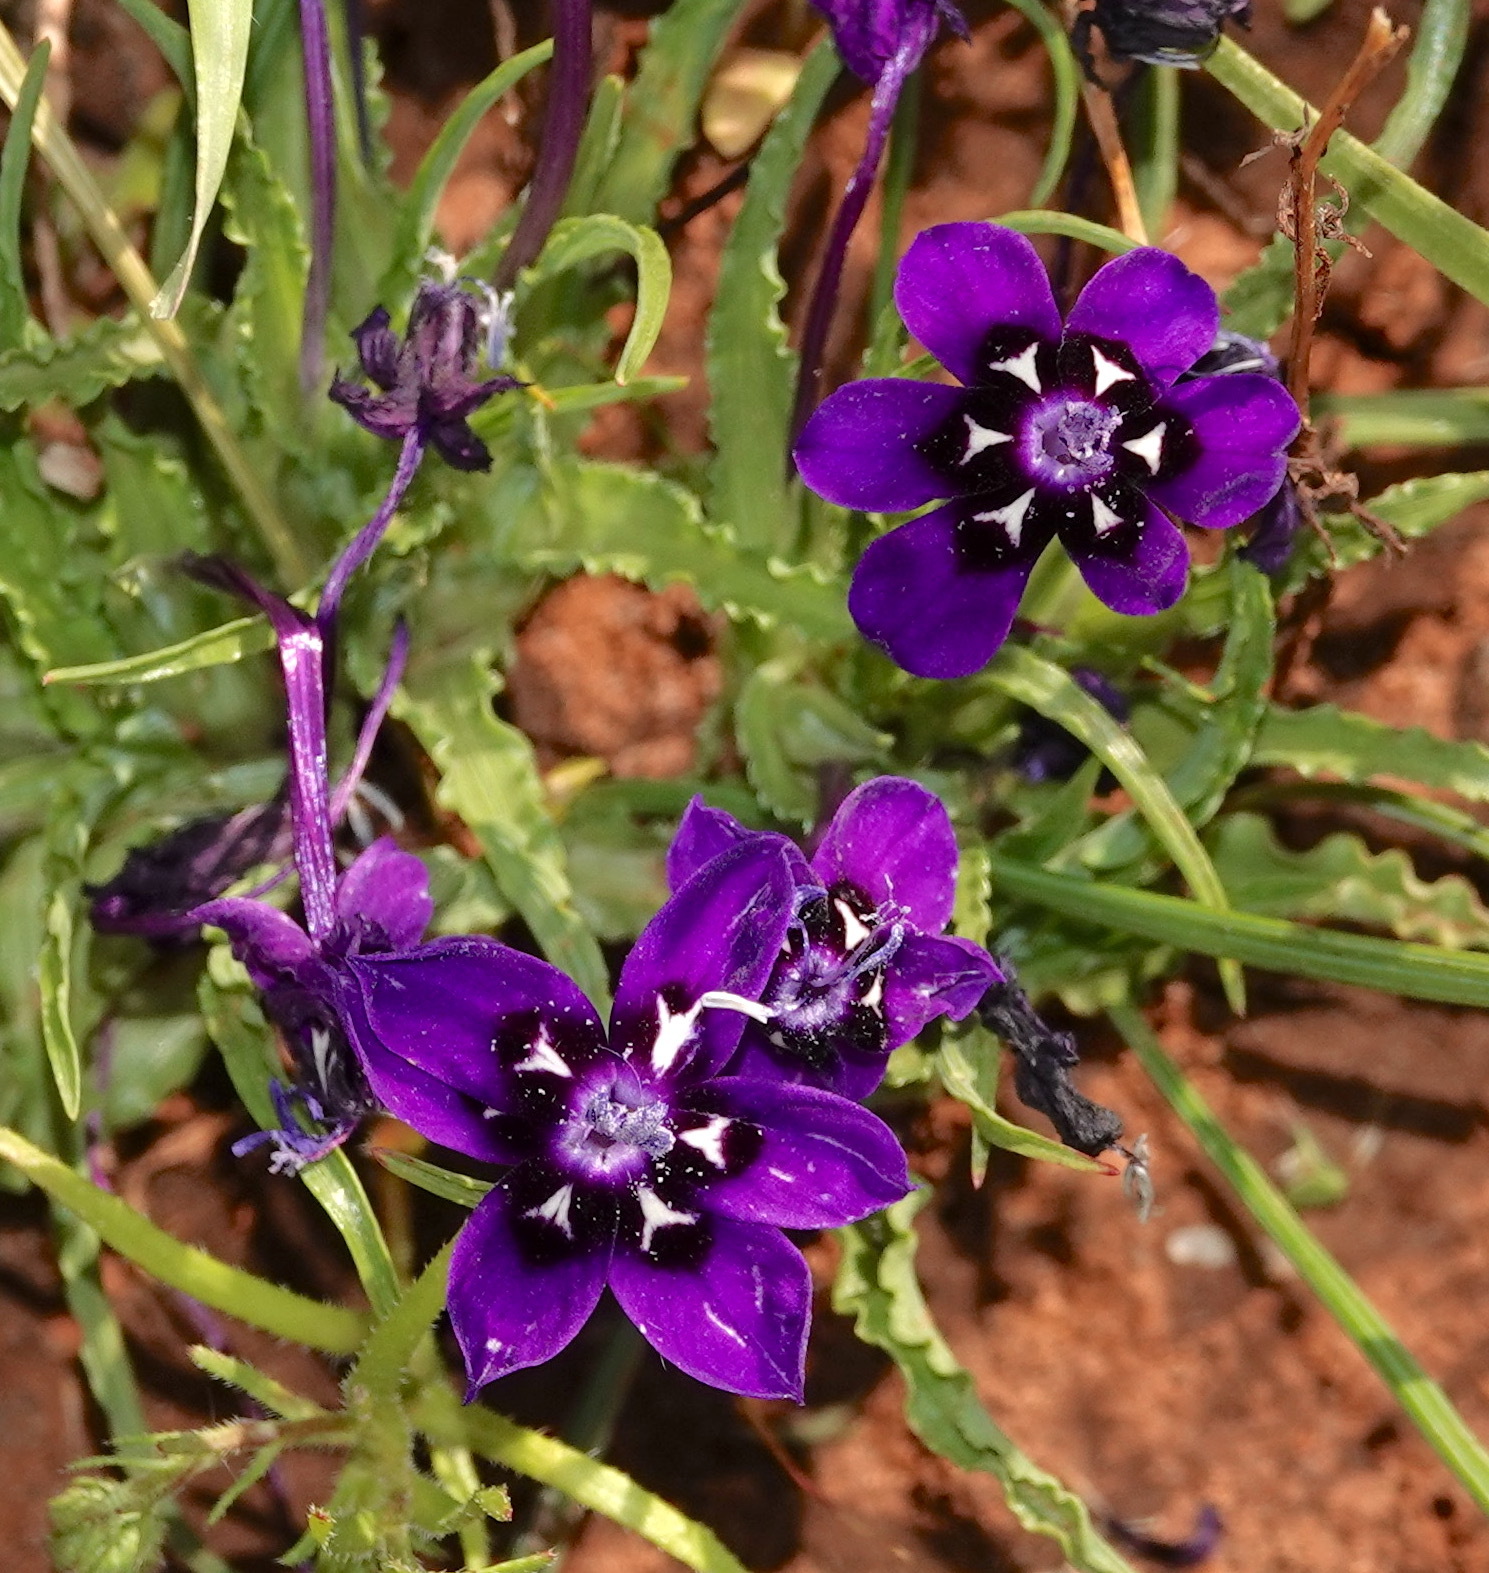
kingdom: Plantae
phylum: Tracheophyta
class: Liliopsida
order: Asparagales
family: Iridaceae
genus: Lapeirousia
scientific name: Lapeirousia oreogena
